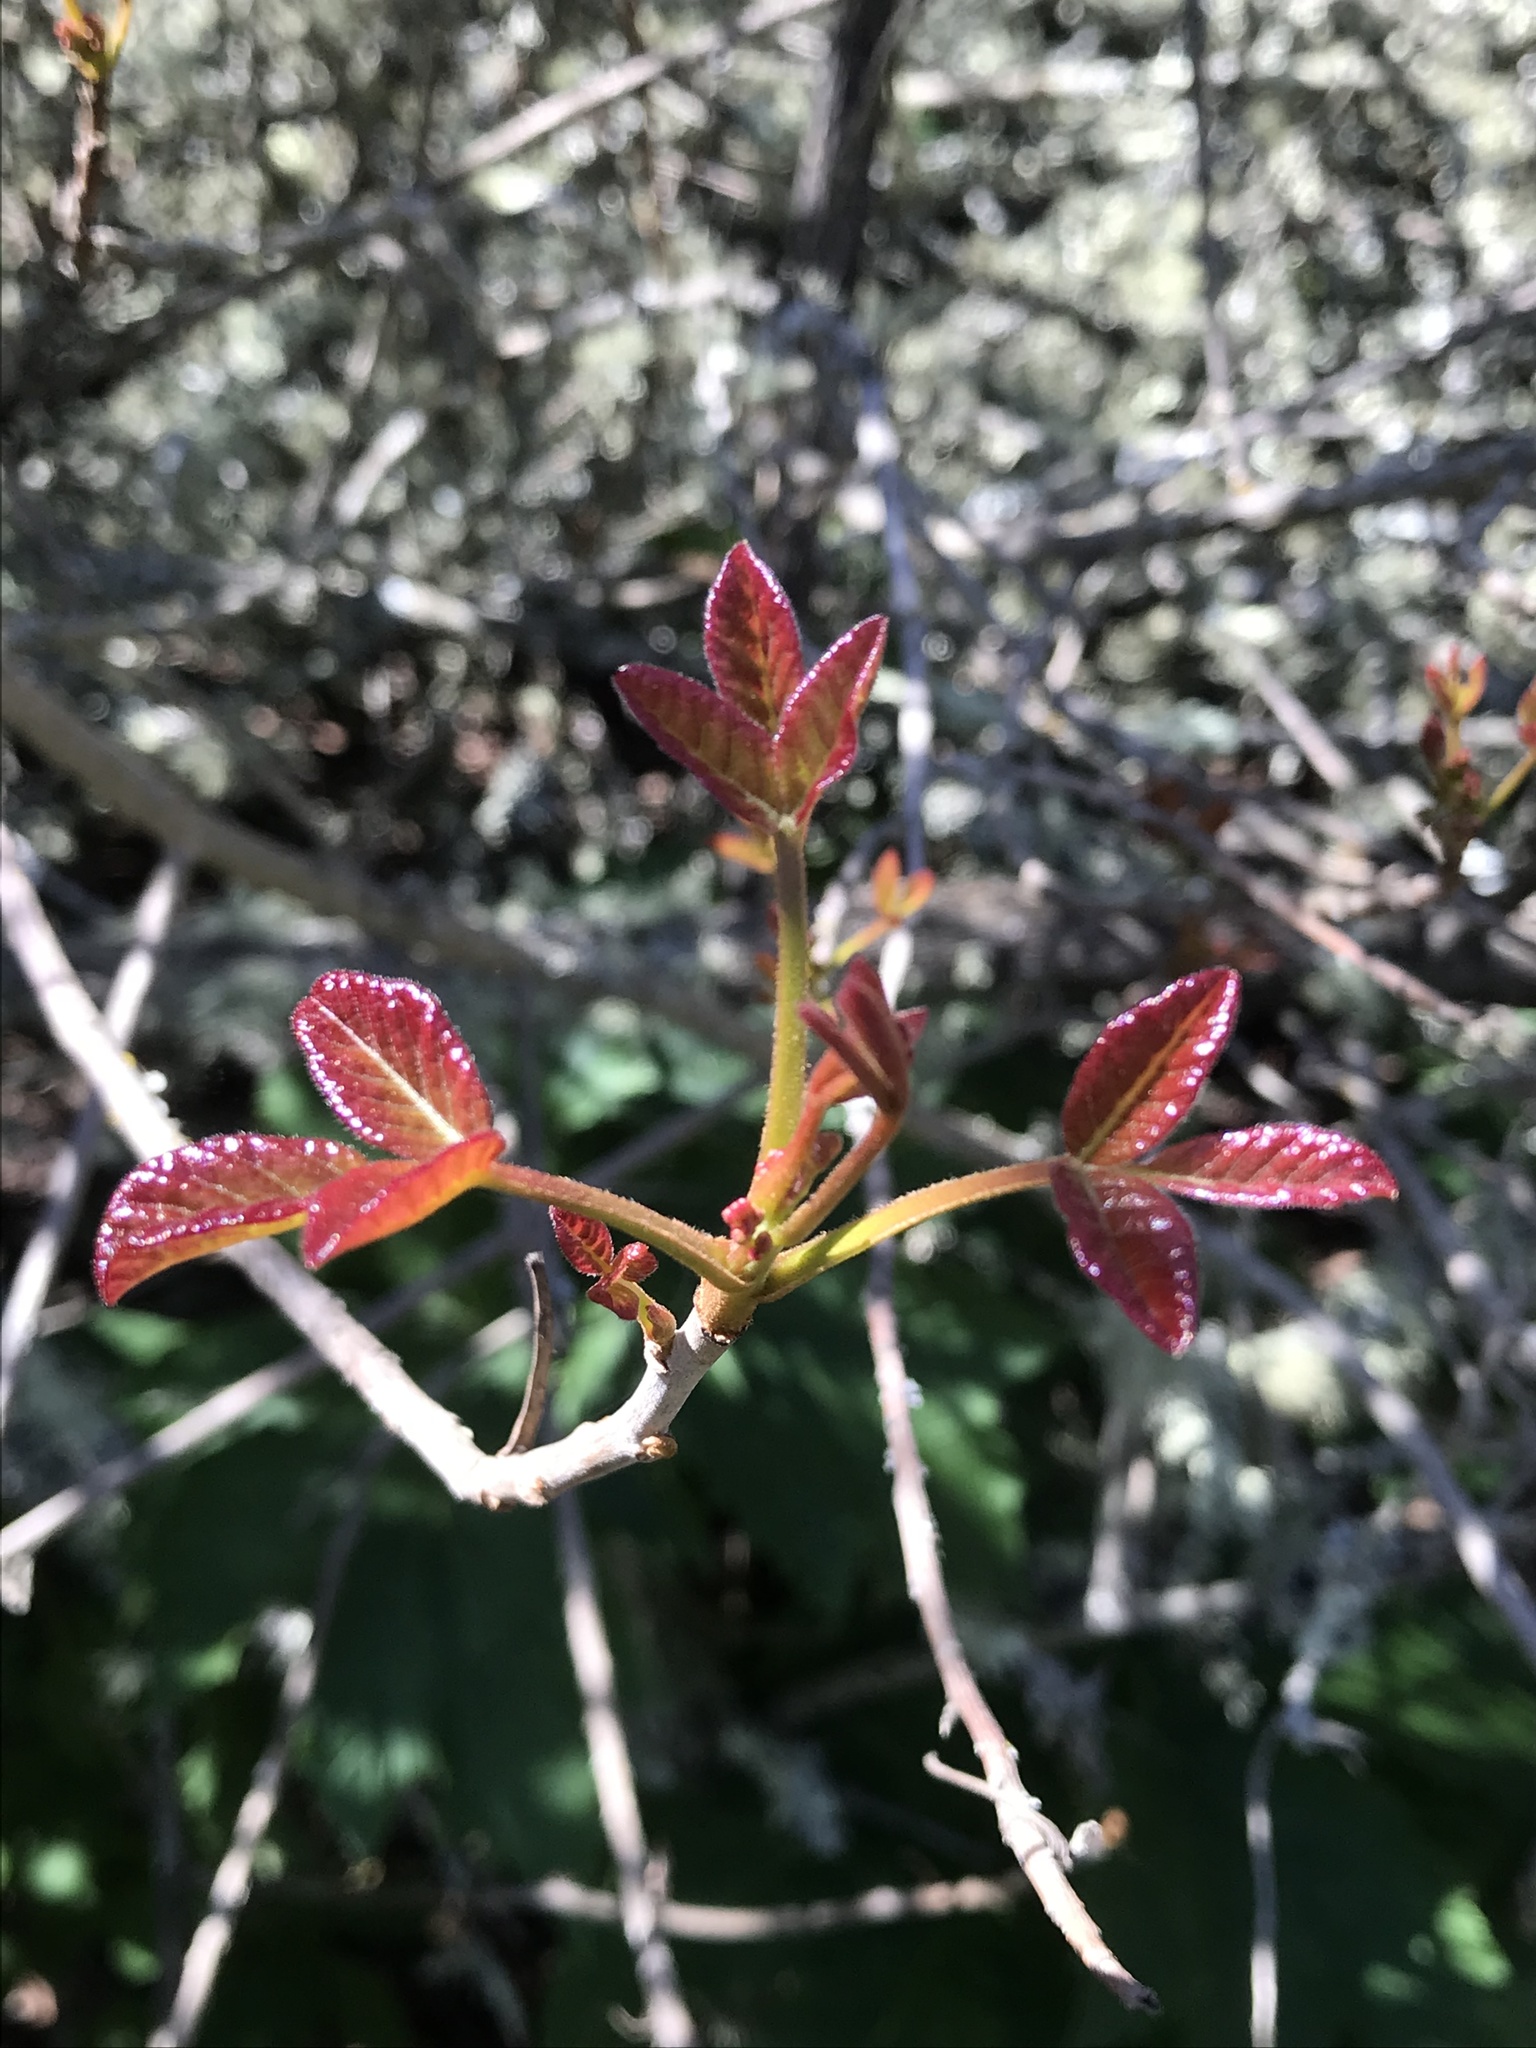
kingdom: Plantae
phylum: Tracheophyta
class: Magnoliopsida
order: Sapindales
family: Anacardiaceae
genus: Toxicodendron
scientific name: Toxicodendron diversilobum
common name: Pacific poison-oak
